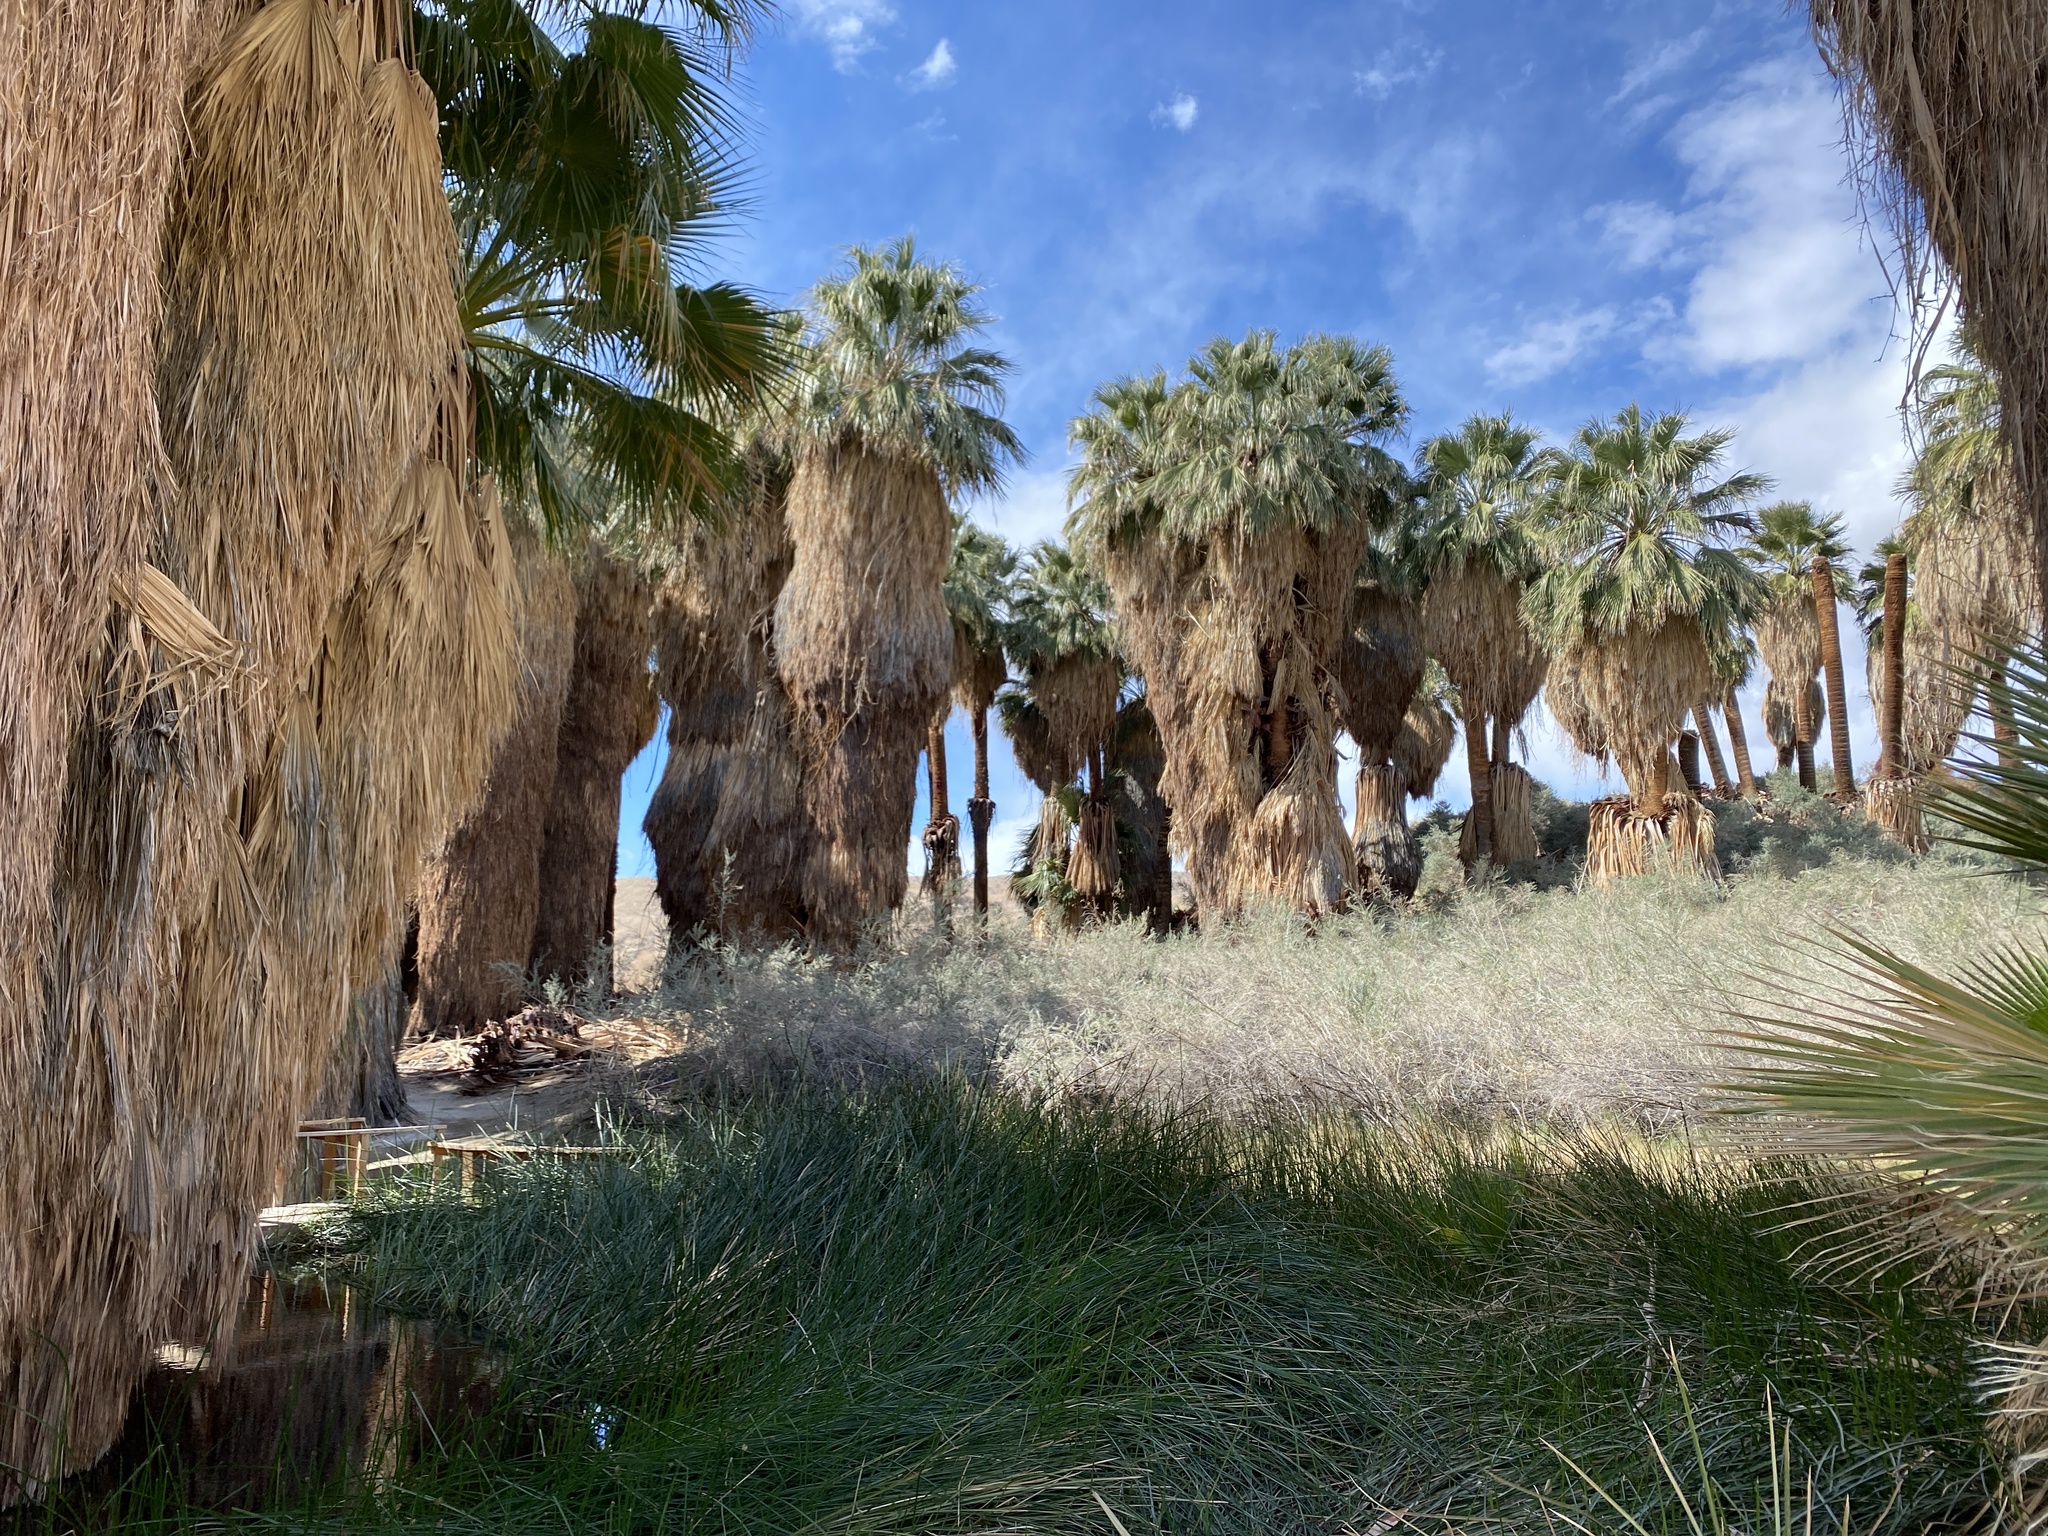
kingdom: Plantae
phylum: Tracheophyta
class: Liliopsida
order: Arecales
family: Arecaceae
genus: Washingtonia
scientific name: Washingtonia filifera
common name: California fan palm
